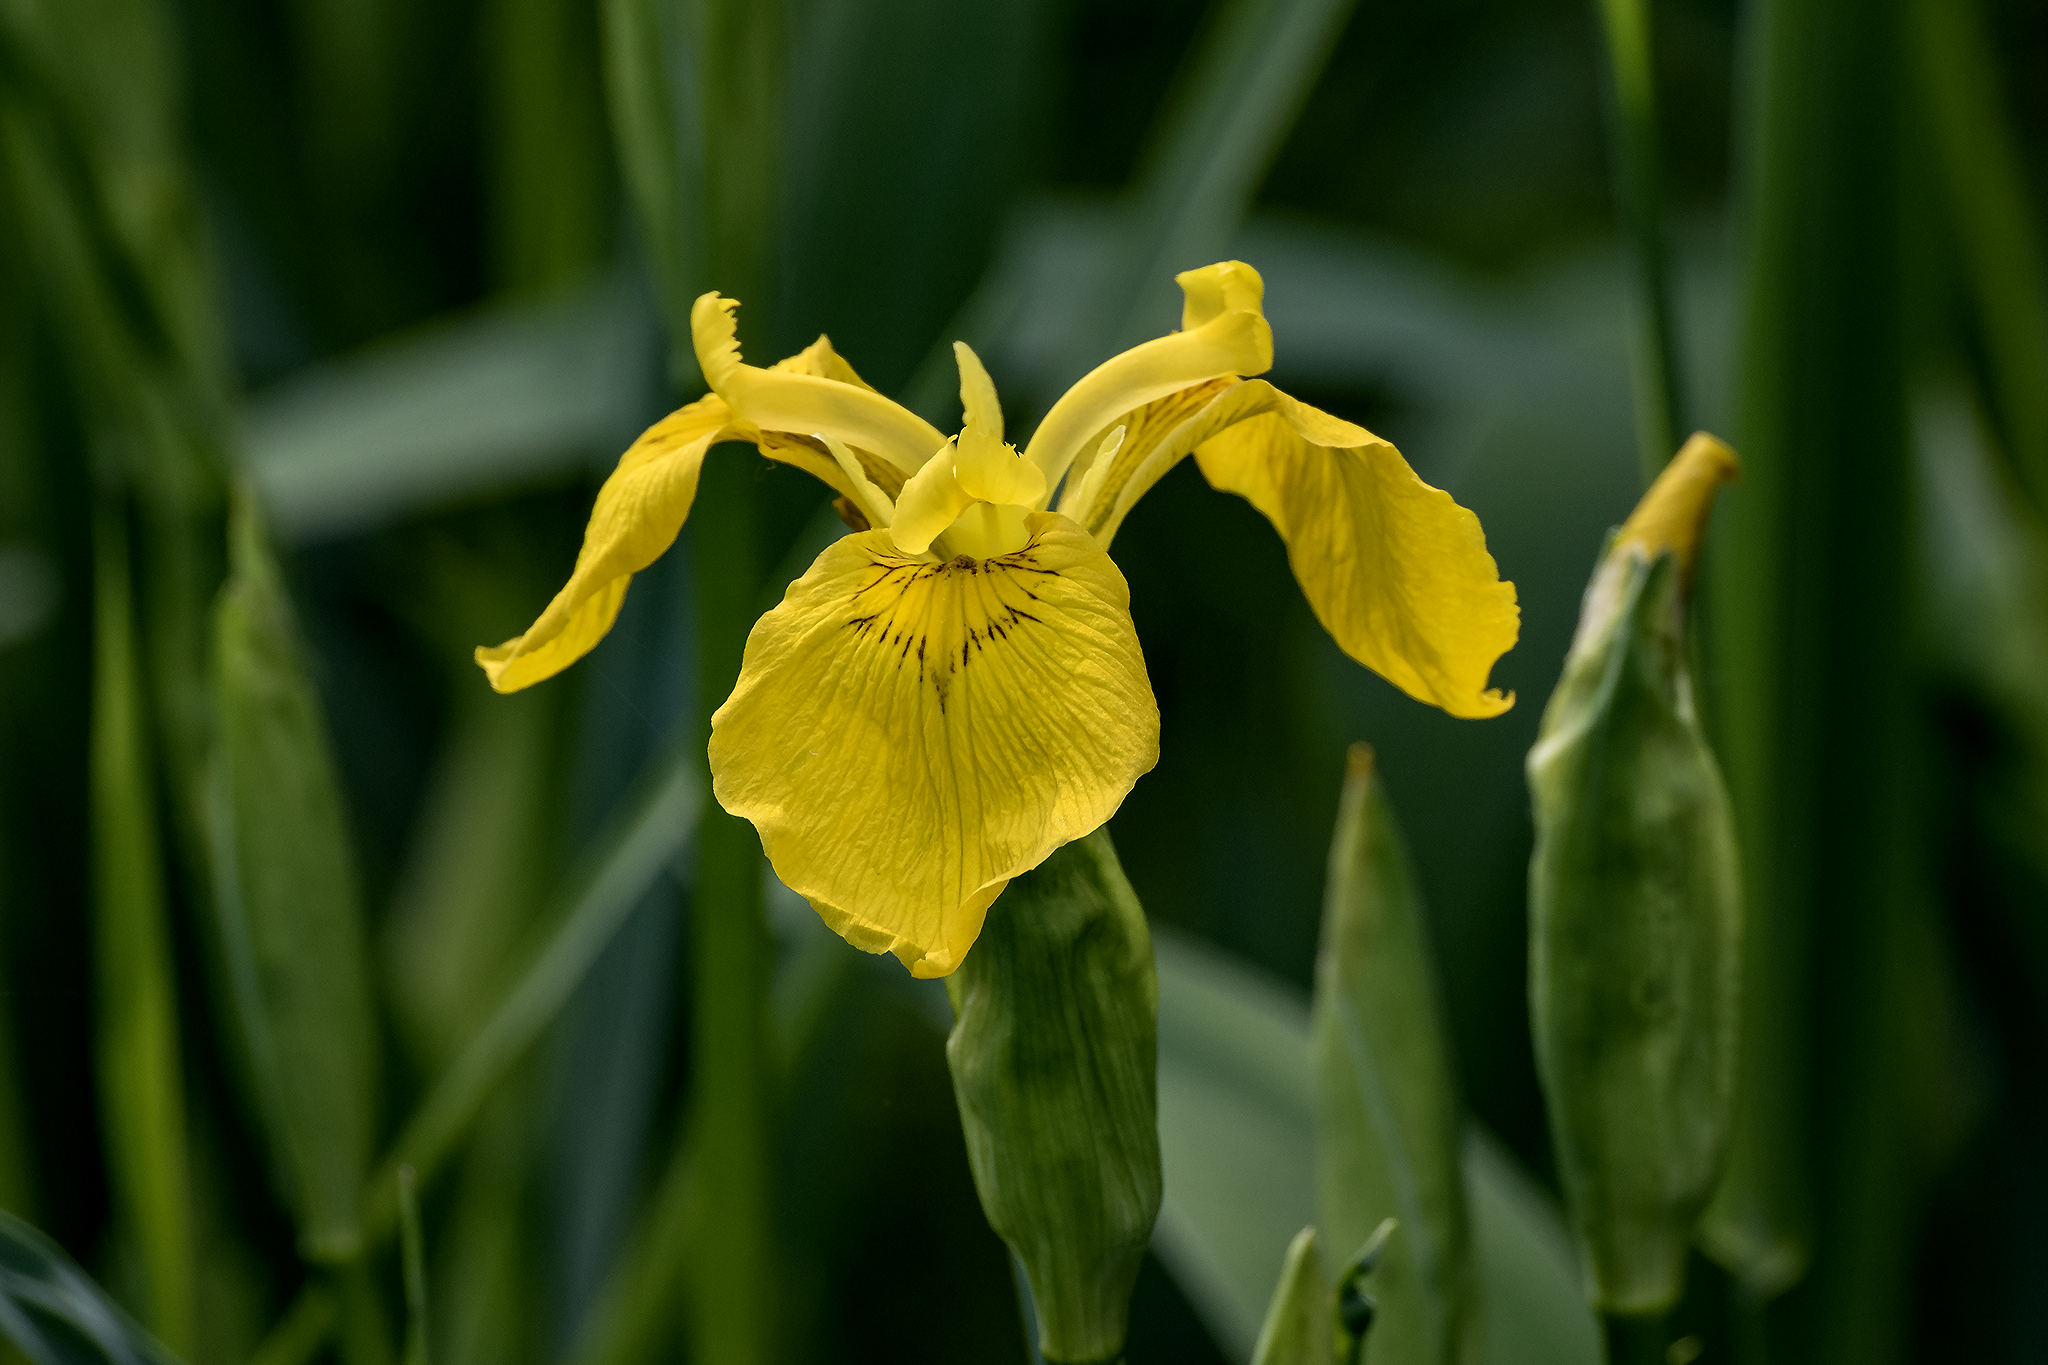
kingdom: Plantae
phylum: Tracheophyta
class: Liliopsida
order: Asparagales
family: Iridaceae
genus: Iris
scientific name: Iris pseudacorus
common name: Yellow flag
